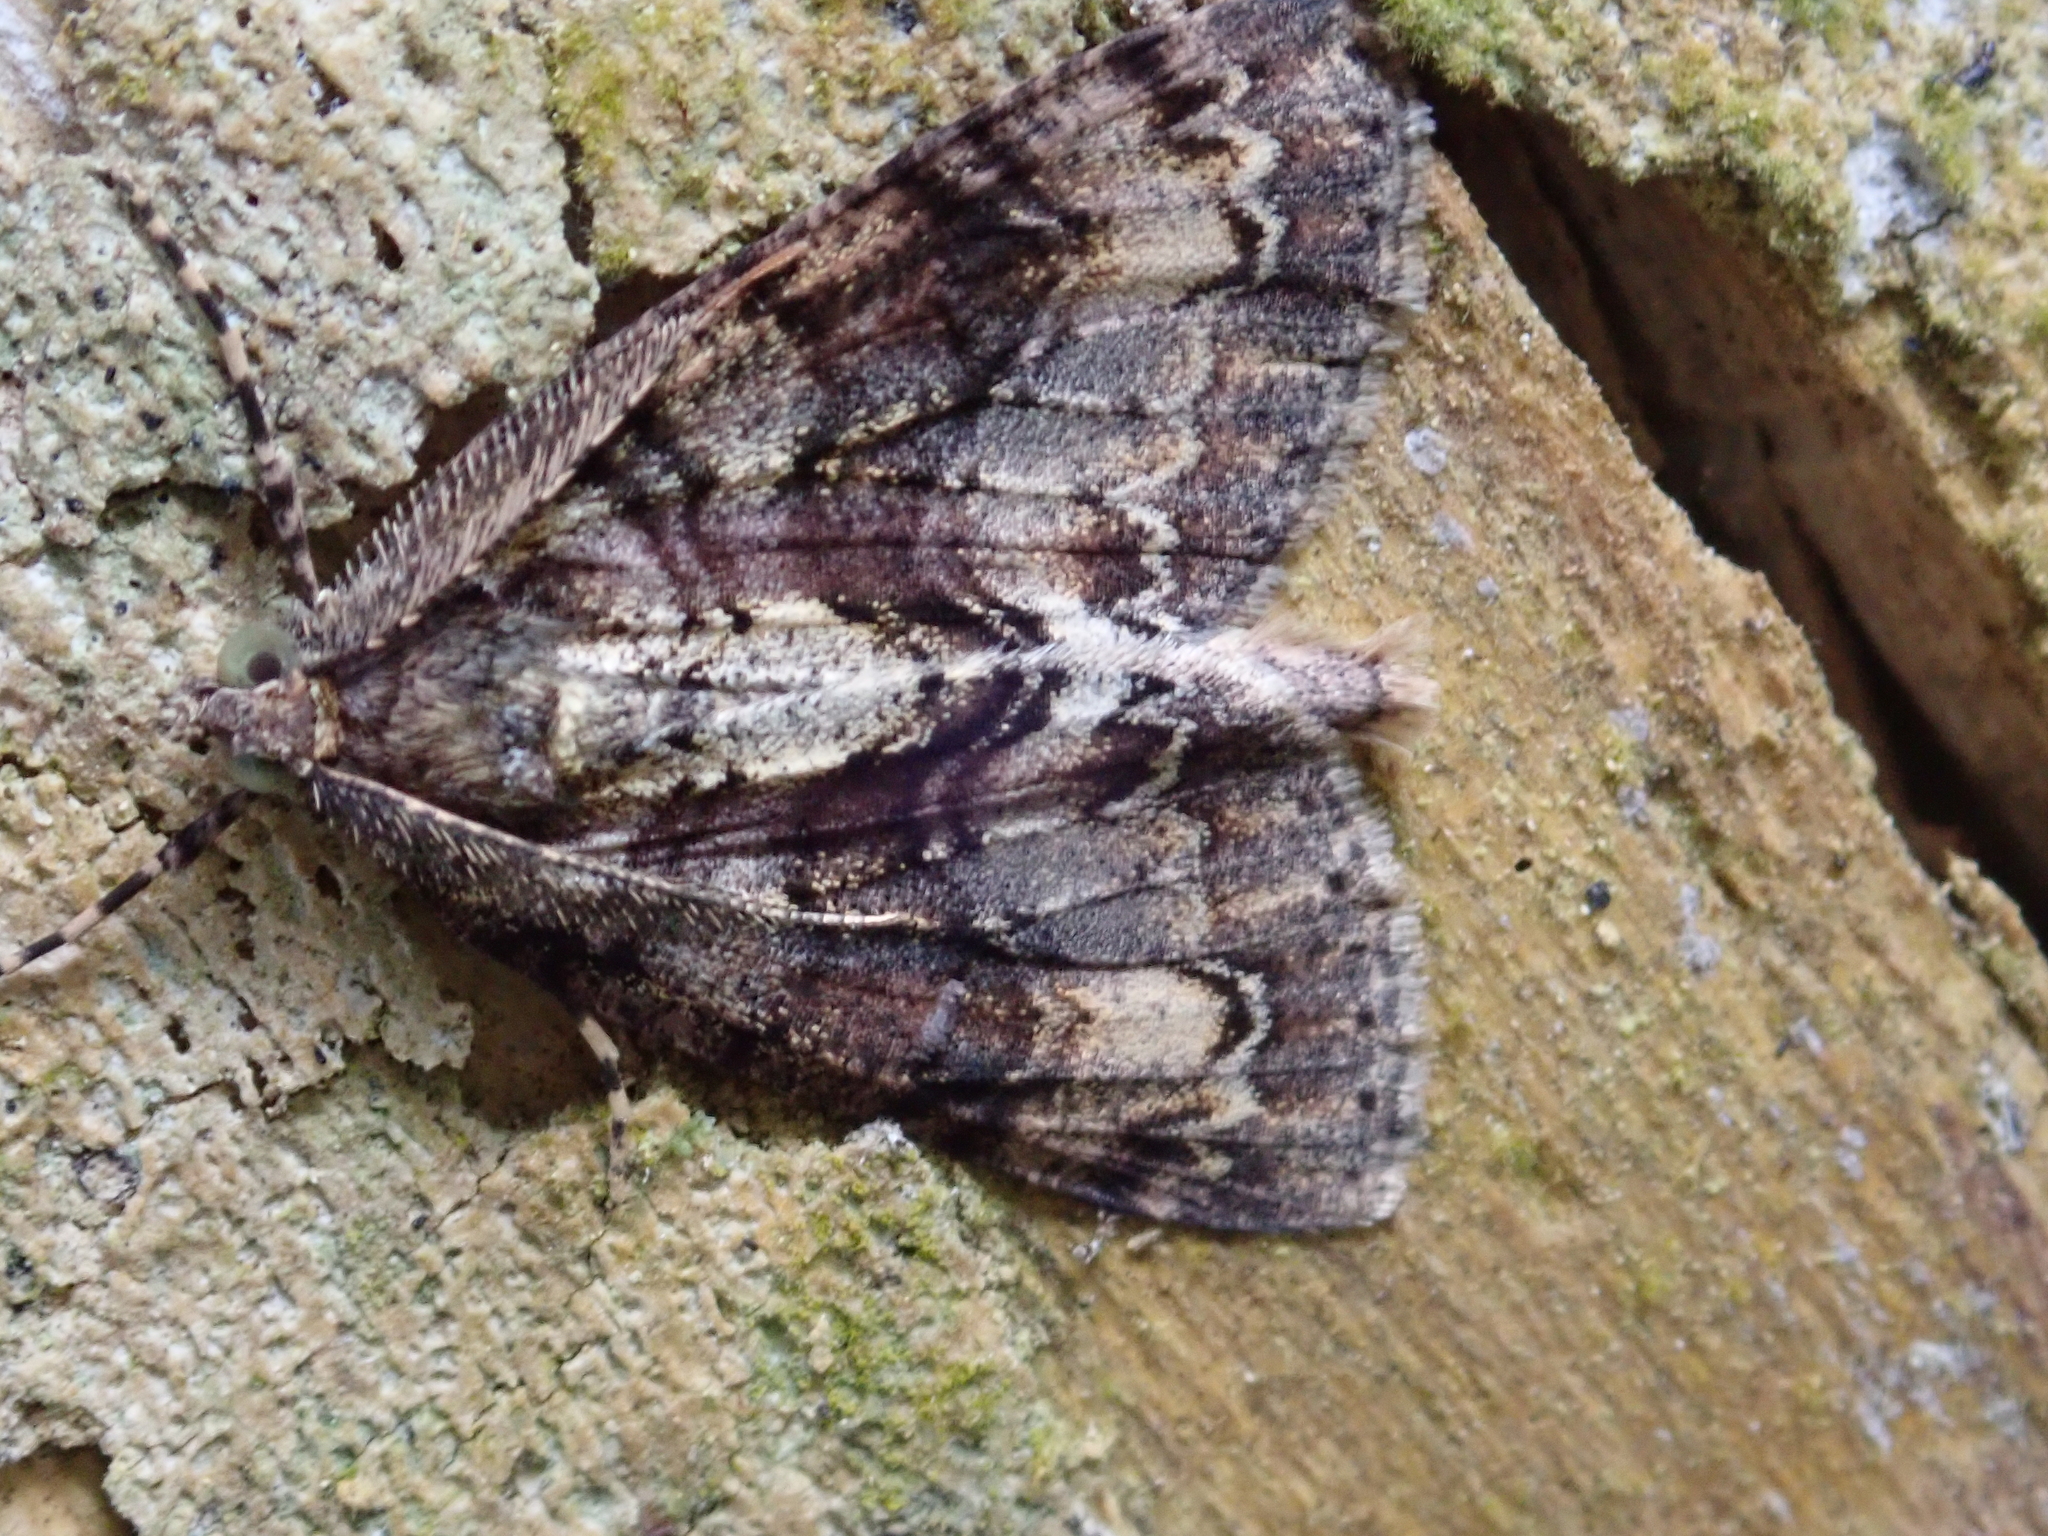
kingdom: Animalia
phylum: Arthropoda
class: Insecta
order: Lepidoptera
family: Geometridae
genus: Pseudocoremia
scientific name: Pseudocoremia suavis
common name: Common forest looper
